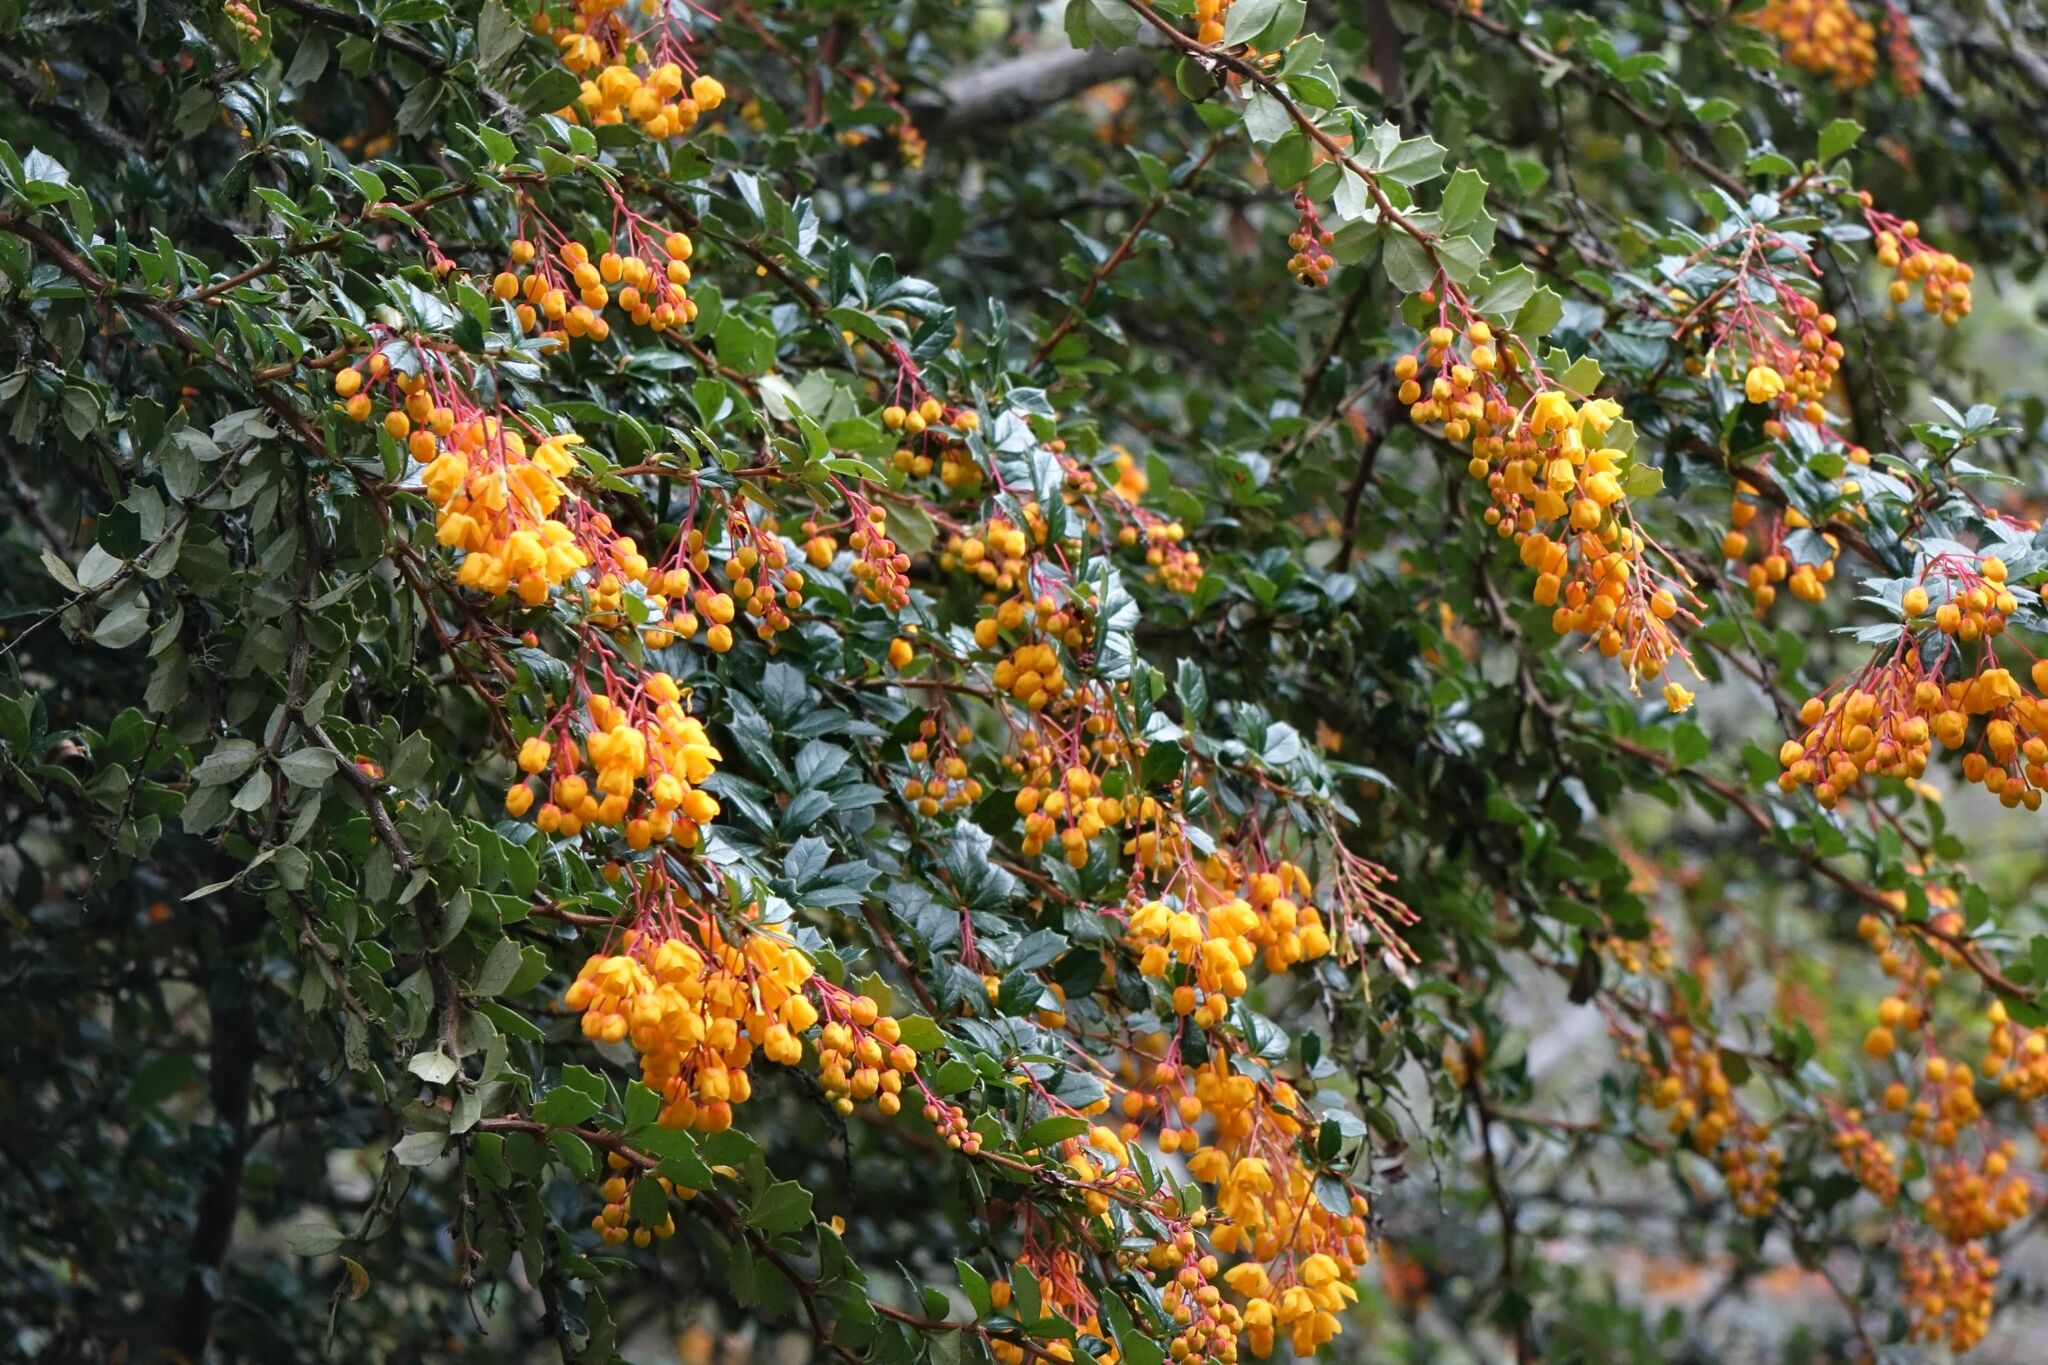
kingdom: Plantae
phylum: Tracheophyta
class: Magnoliopsida
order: Ranunculales
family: Berberidaceae
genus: Berberis
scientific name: Berberis darwinii
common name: Darwin's barberry
